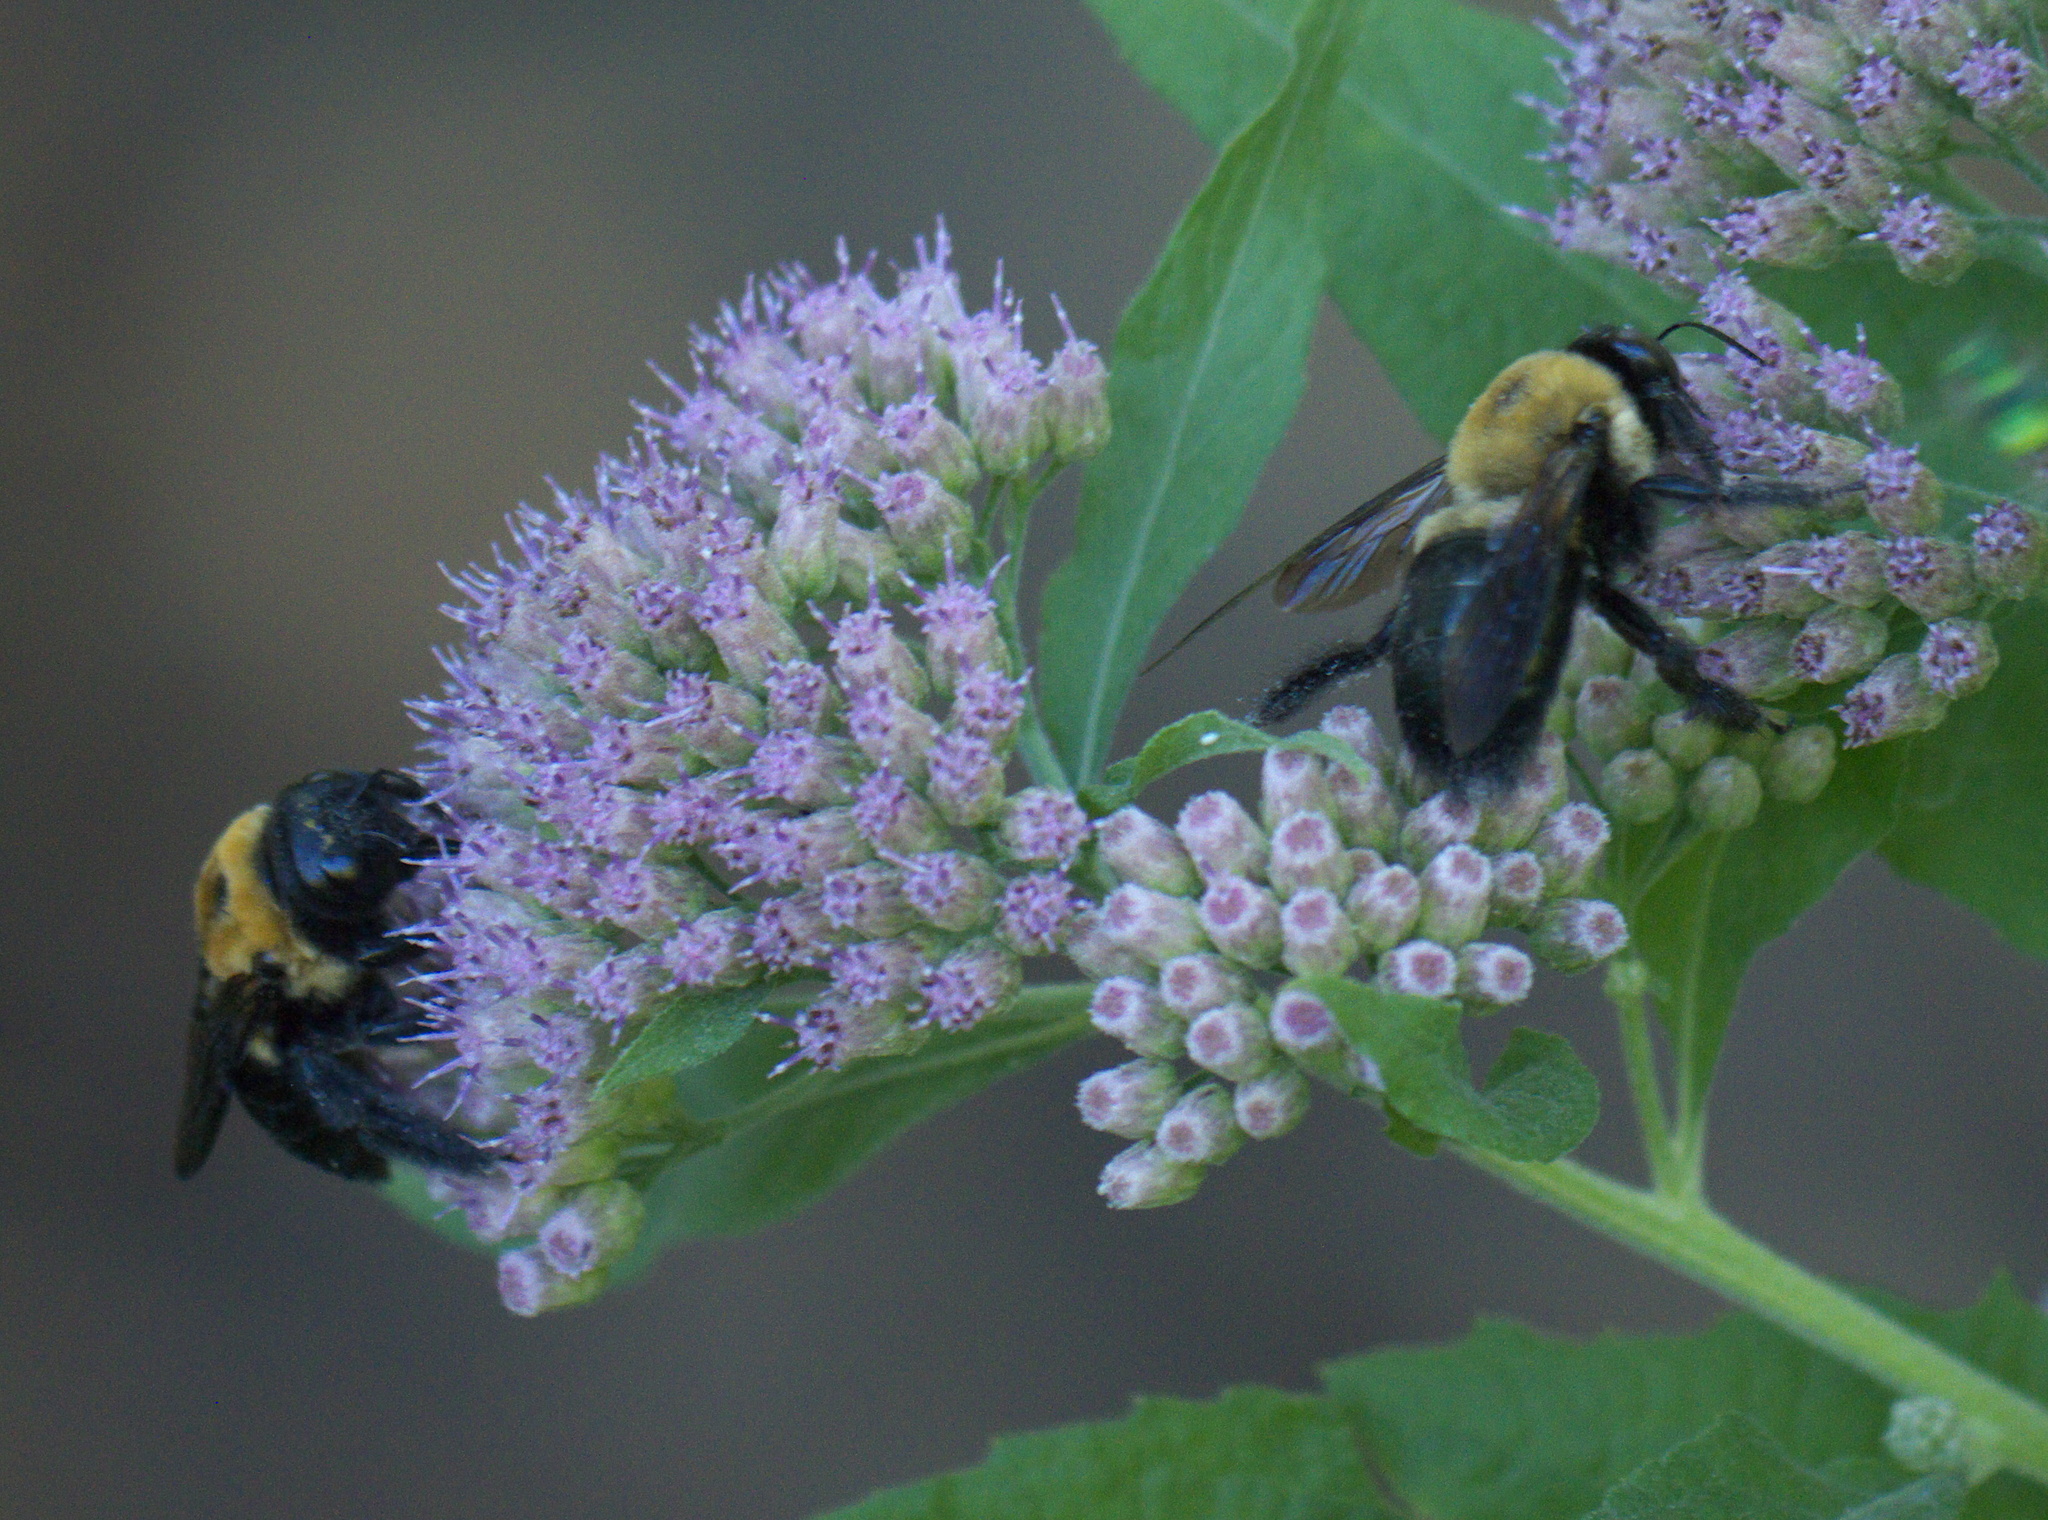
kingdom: Animalia
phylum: Arthropoda
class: Insecta
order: Hymenoptera
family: Apidae
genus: Xylocopa
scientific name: Xylocopa virginica
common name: Carpenter bee
